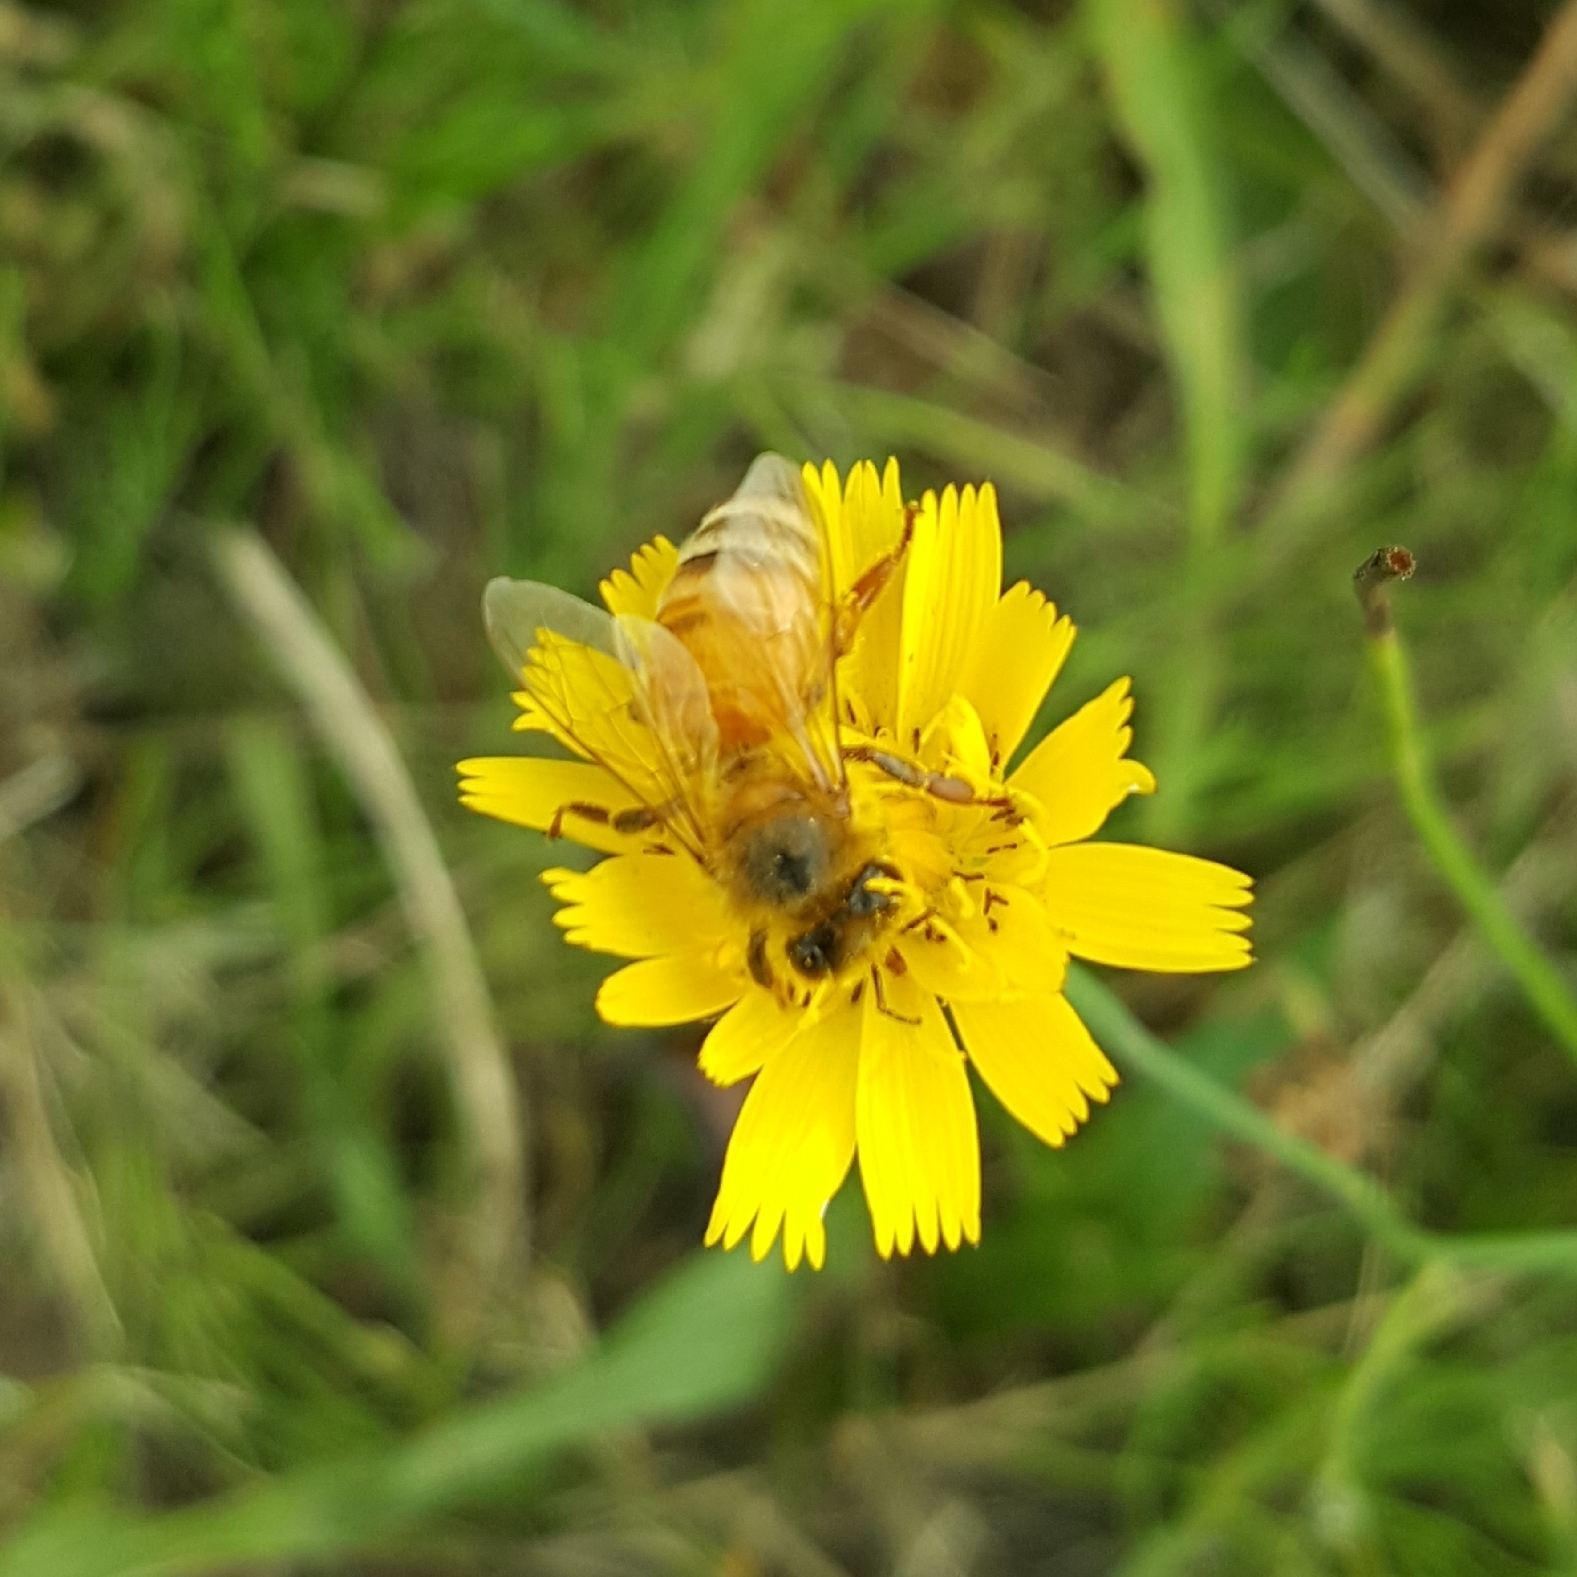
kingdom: Animalia
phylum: Arthropoda
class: Insecta
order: Hymenoptera
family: Apidae
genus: Apis
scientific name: Apis mellifera
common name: Honey bee
